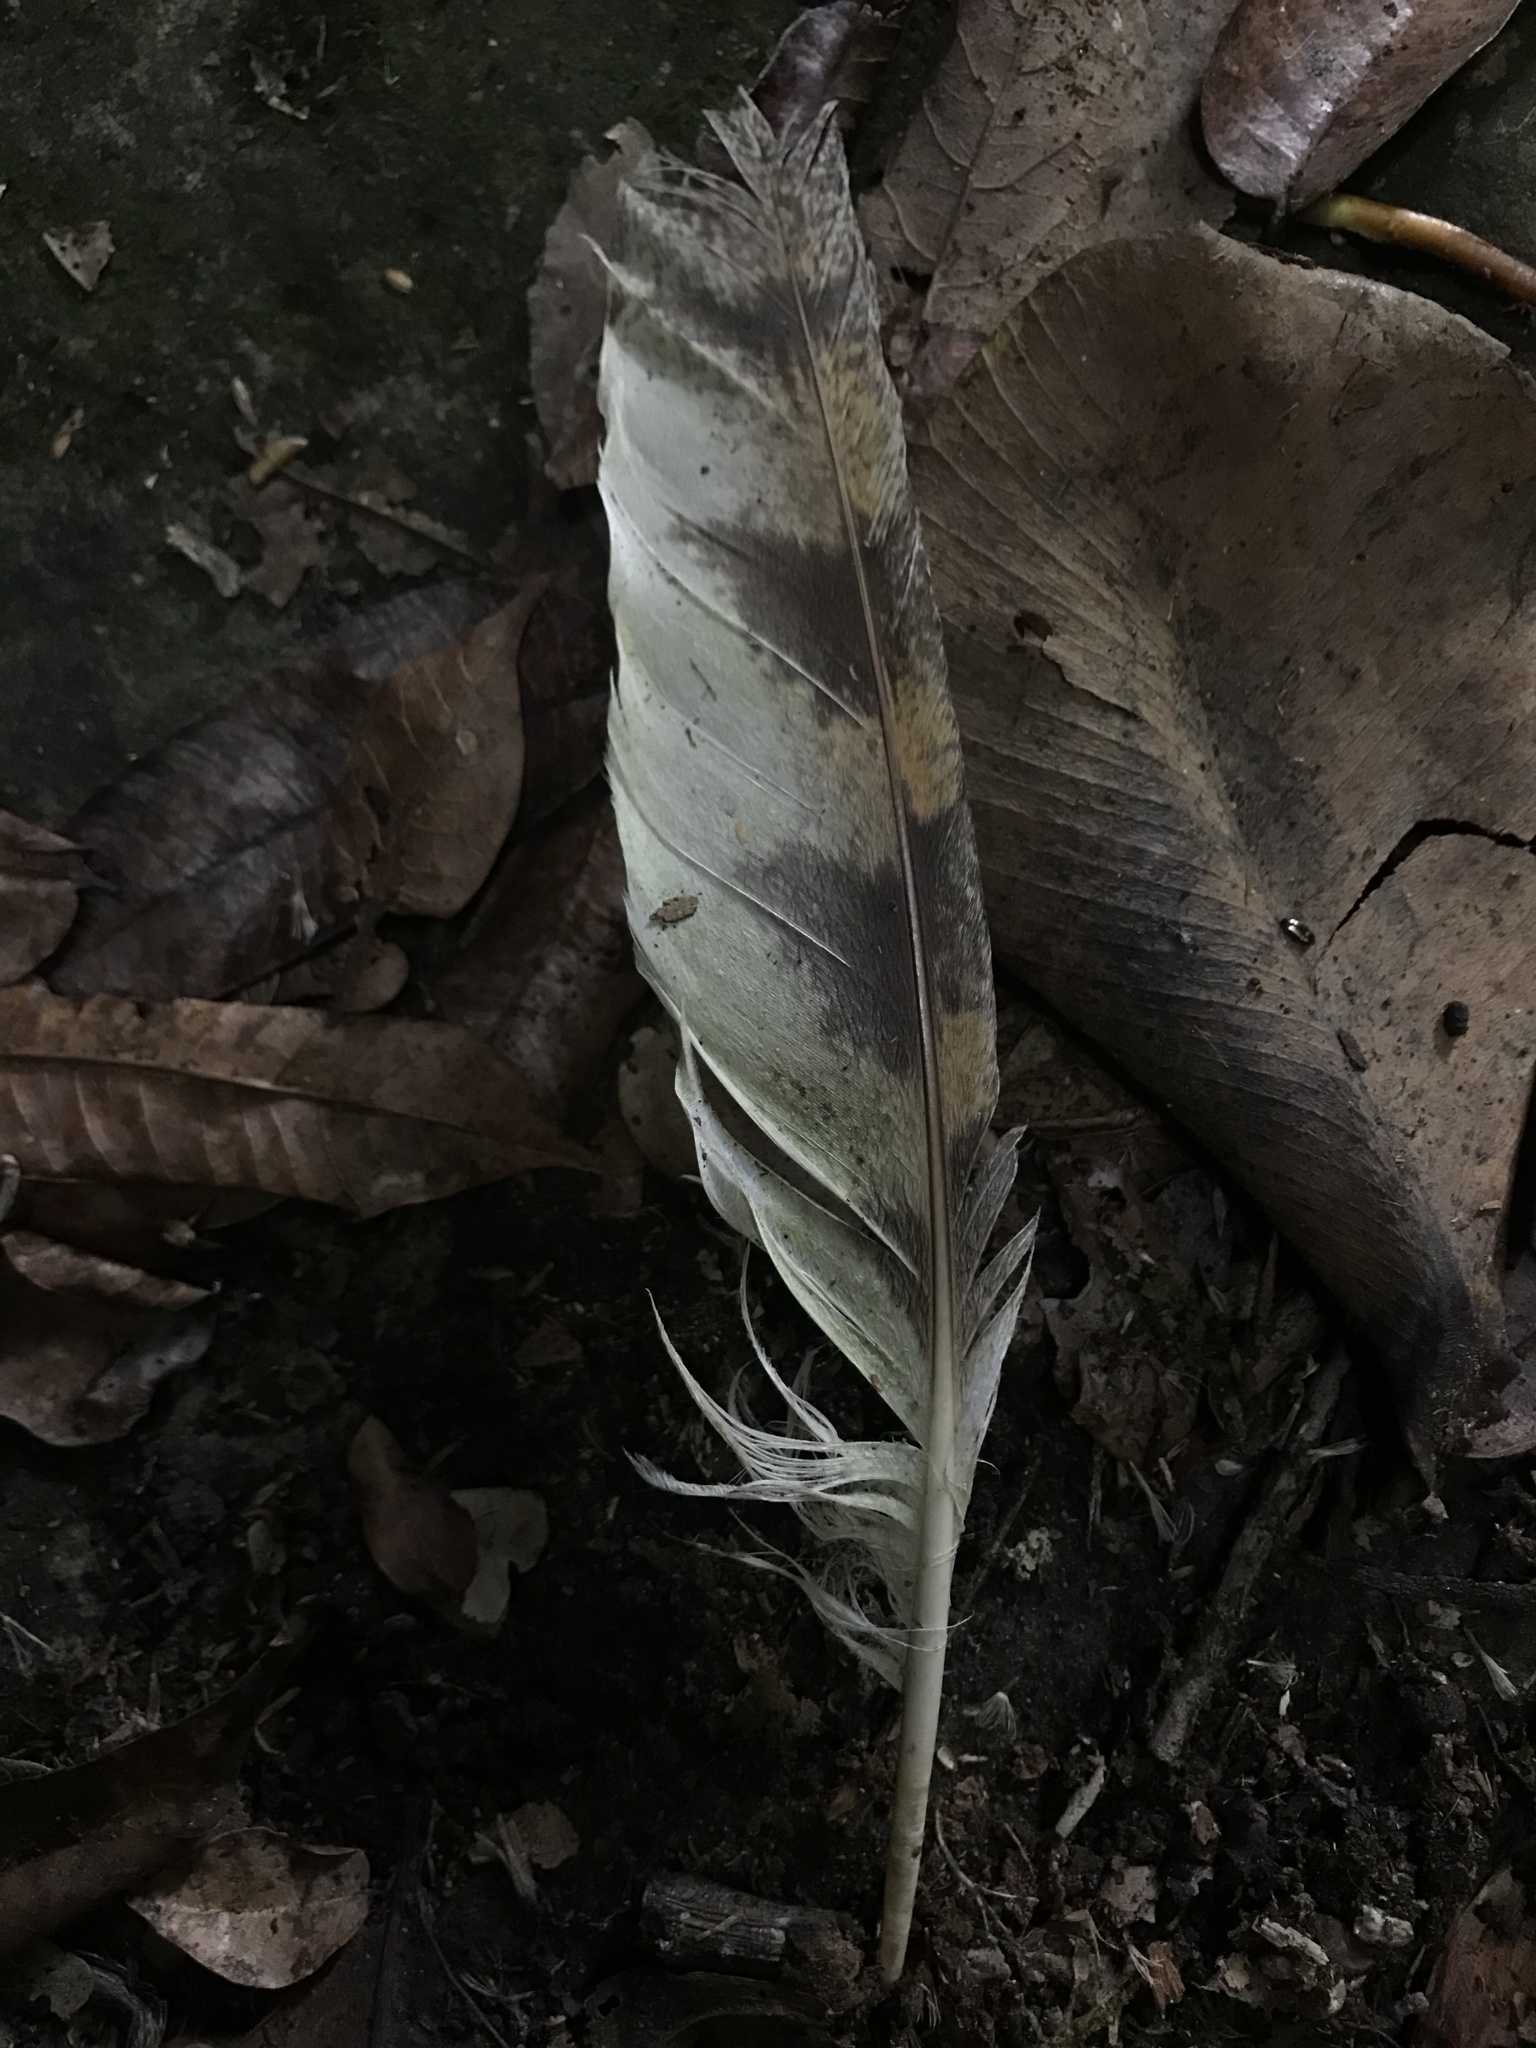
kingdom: Animalia
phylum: Chordata
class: Aves
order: Strigiformes
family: Tytonidae
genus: Tyto
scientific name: Tyto alba
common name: Barn owl
